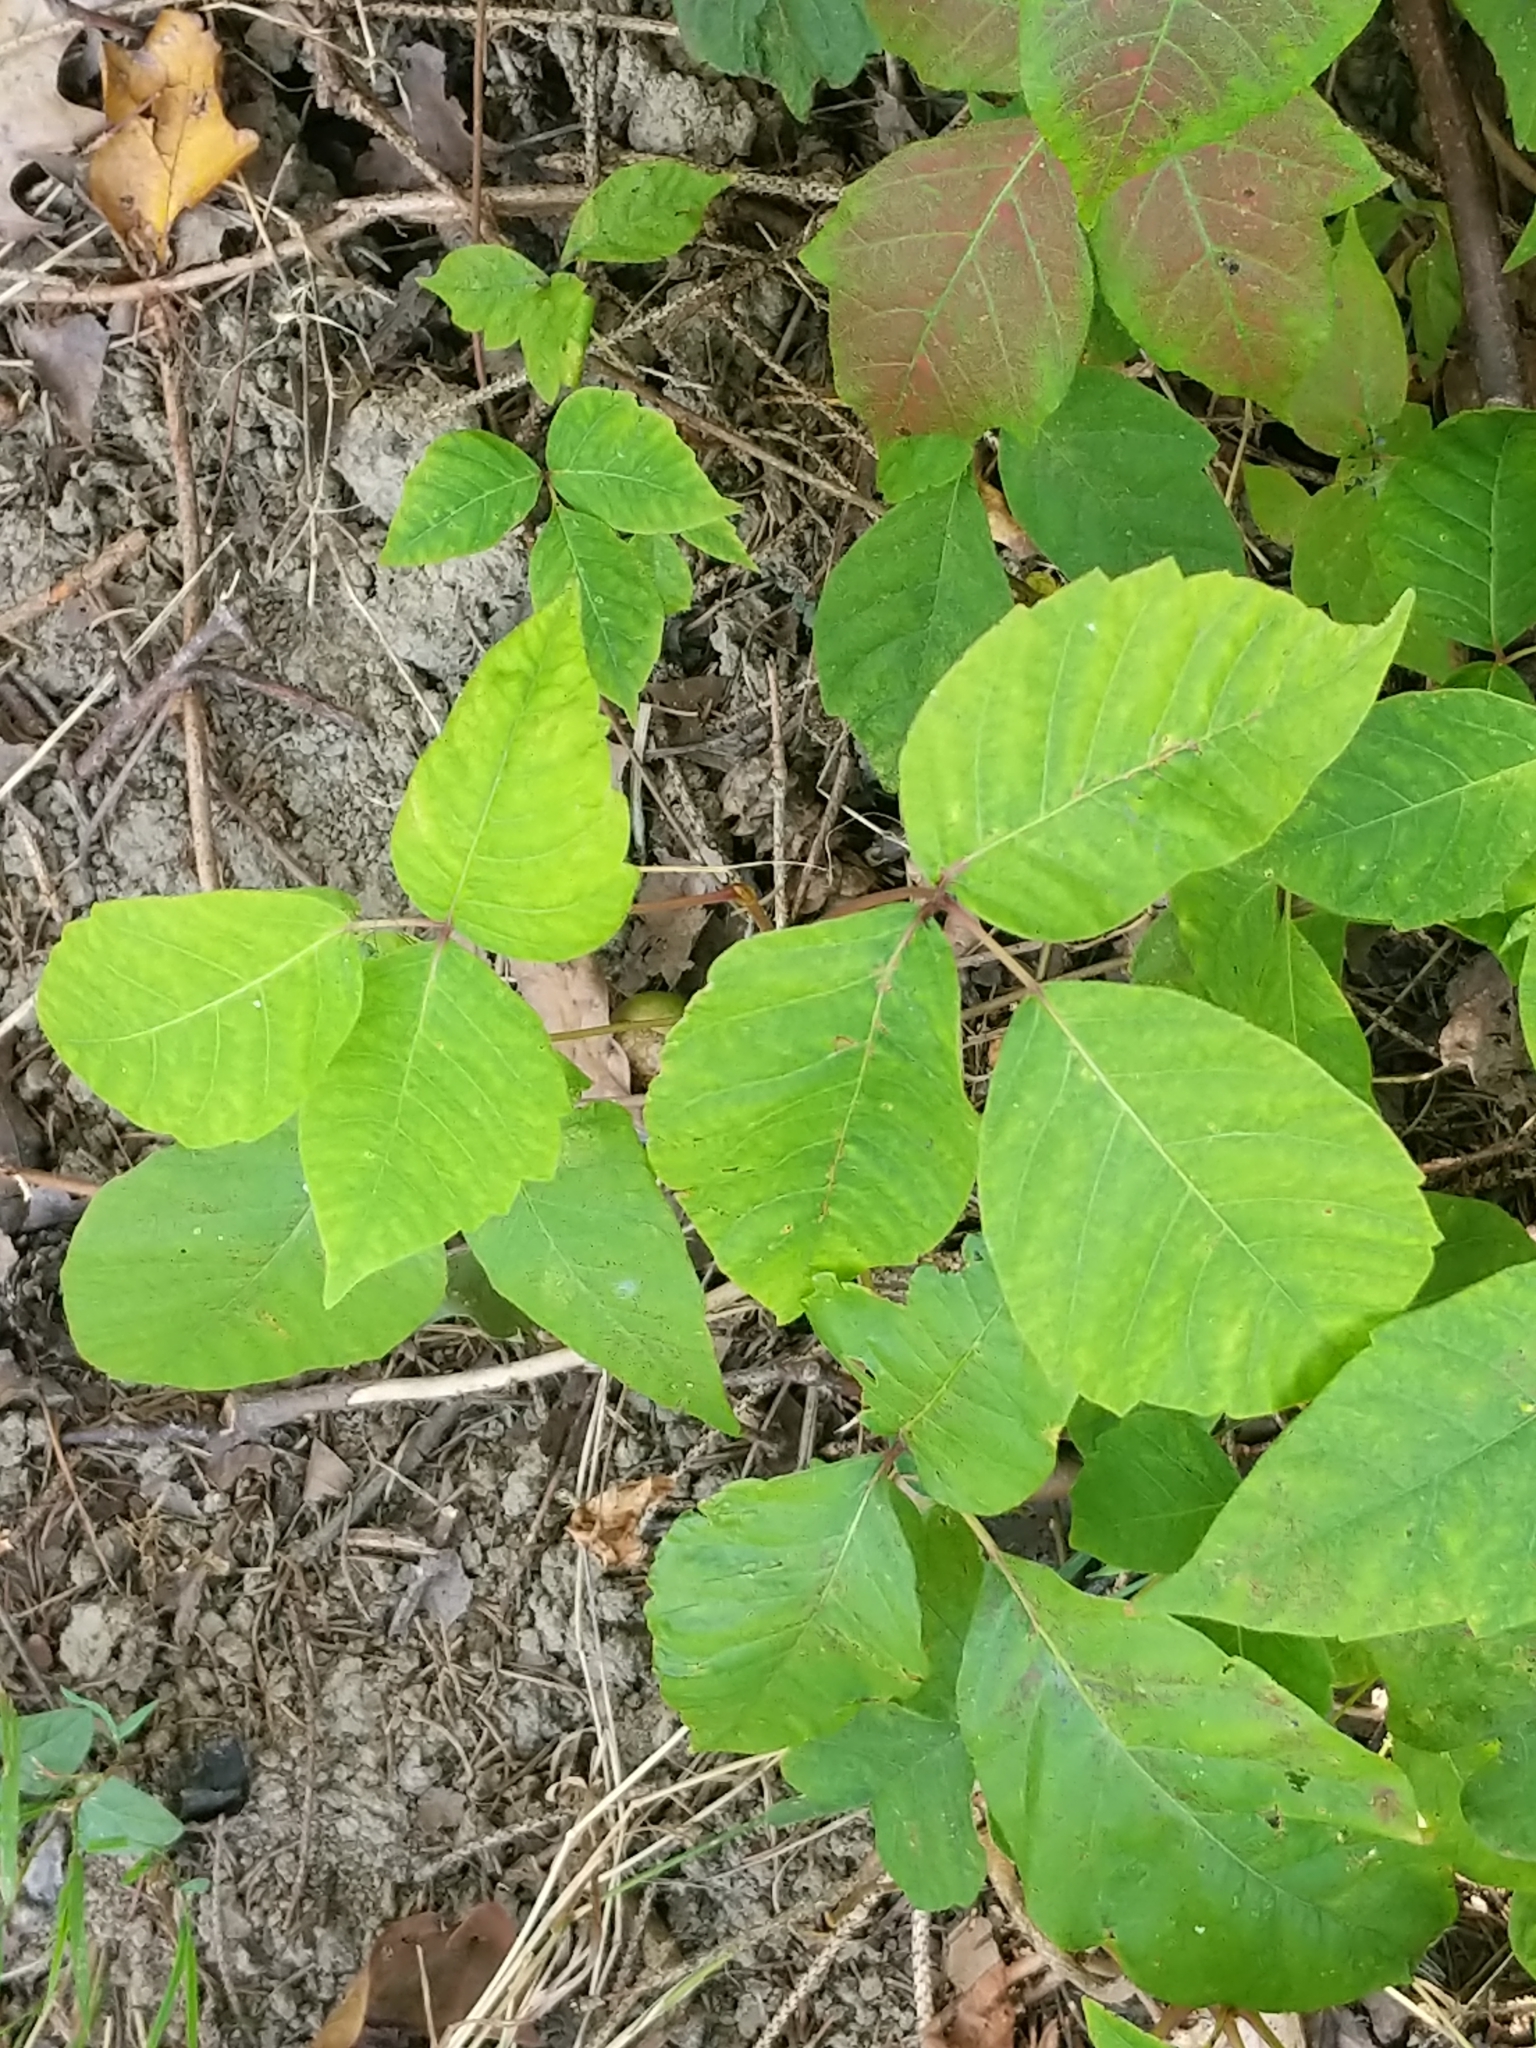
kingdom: Plantae
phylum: Tracheophyta
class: Magnoliopsida
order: Sapindales
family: Anacardiaceae
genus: Toxicodendron
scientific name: Toxicodendron radicans
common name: Poison ivy
